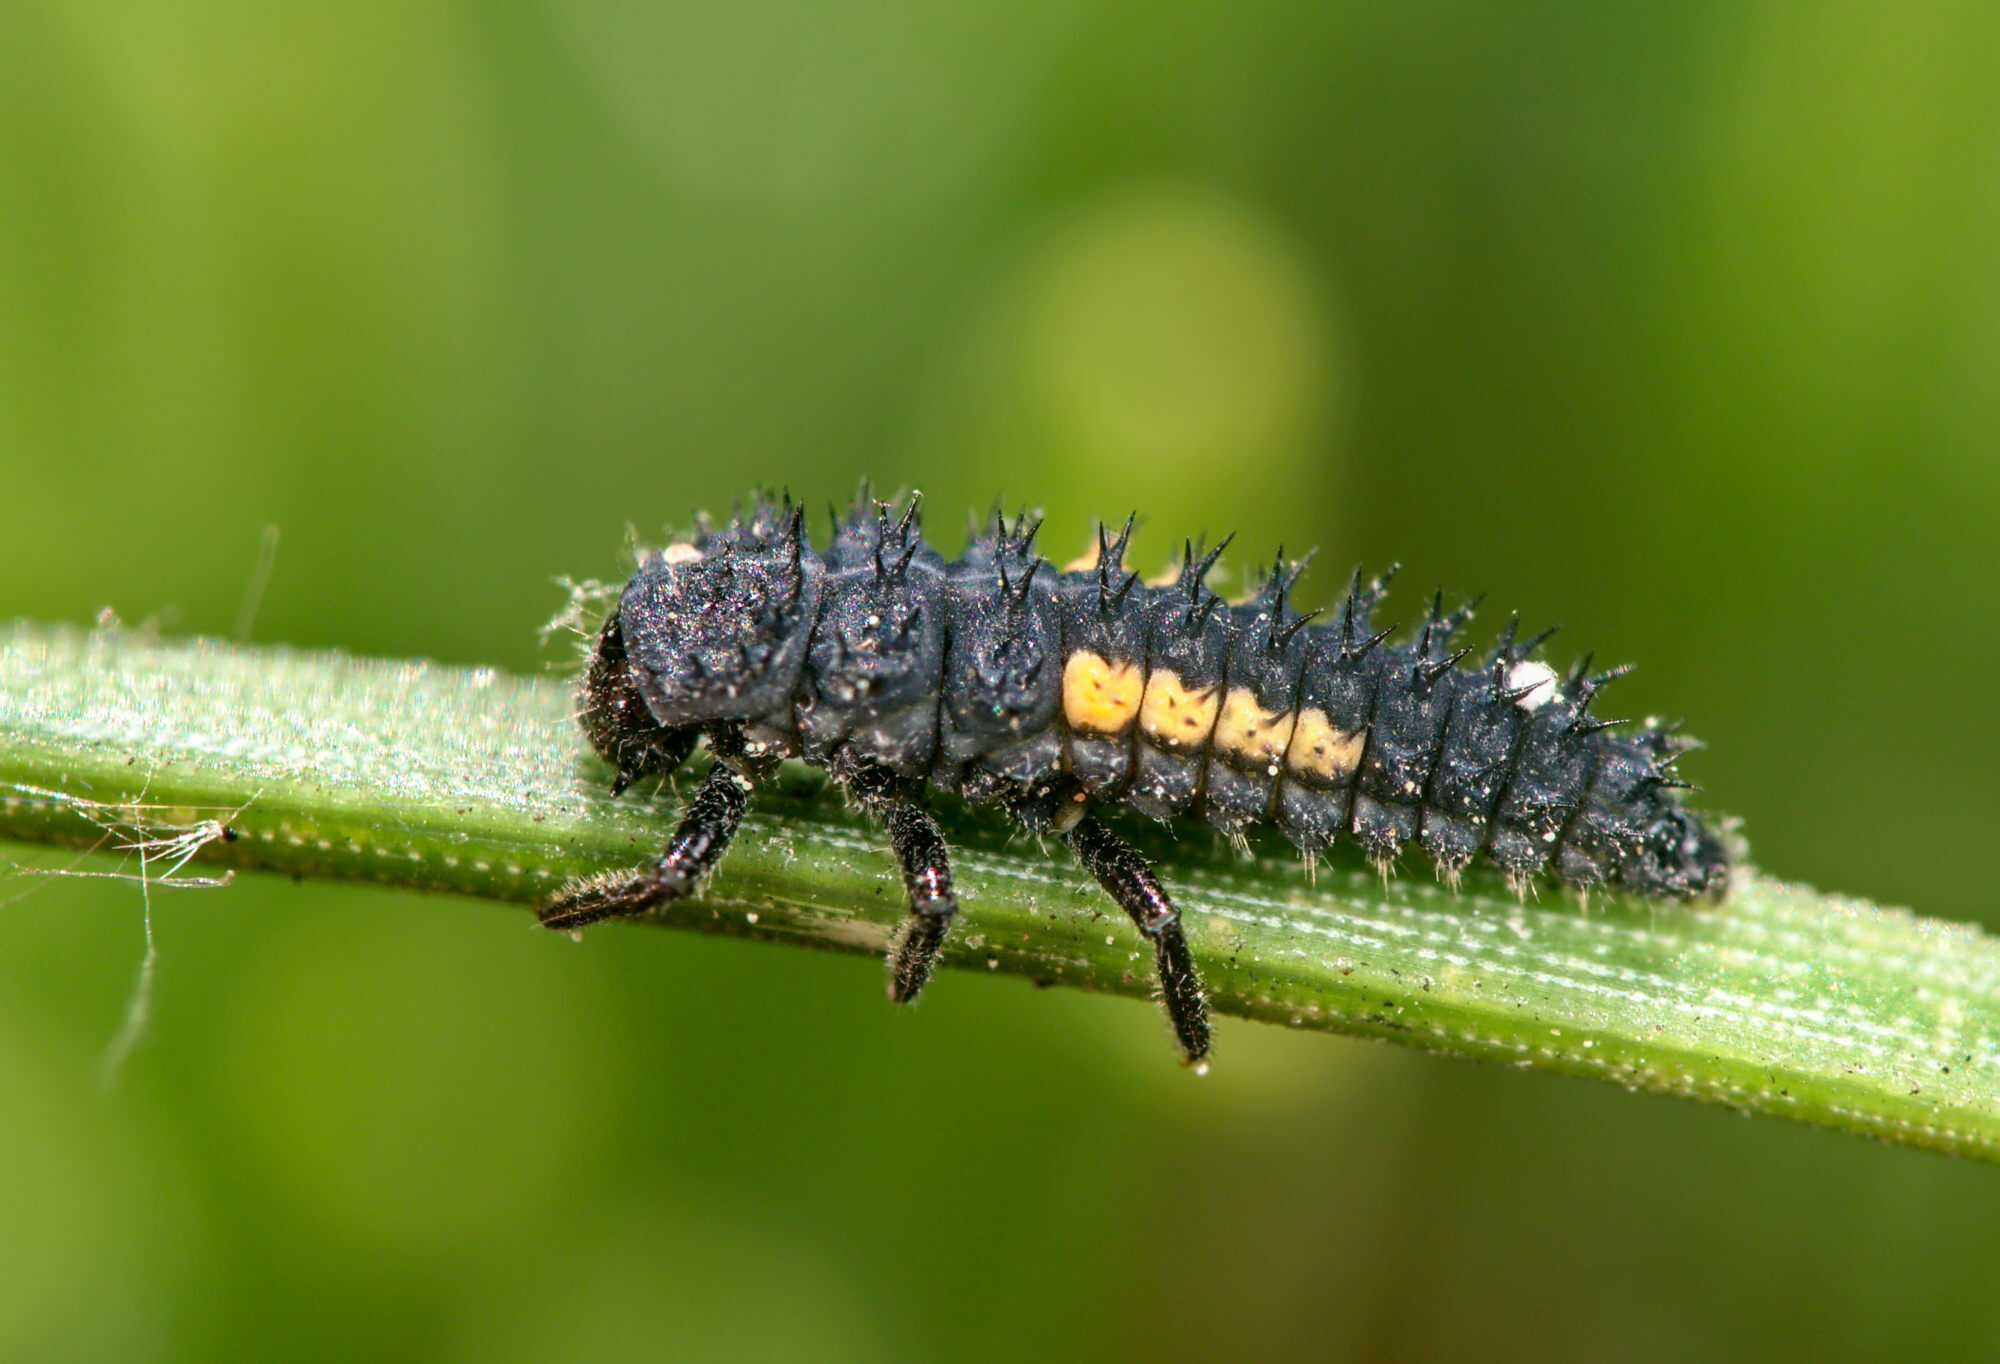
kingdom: Animalia
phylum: Arthropoda
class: Insecta
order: Coleoptera
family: Coccinellidae
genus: Harmonia
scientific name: Harmonia quadripunctata
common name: Cream-streaked ladybird
